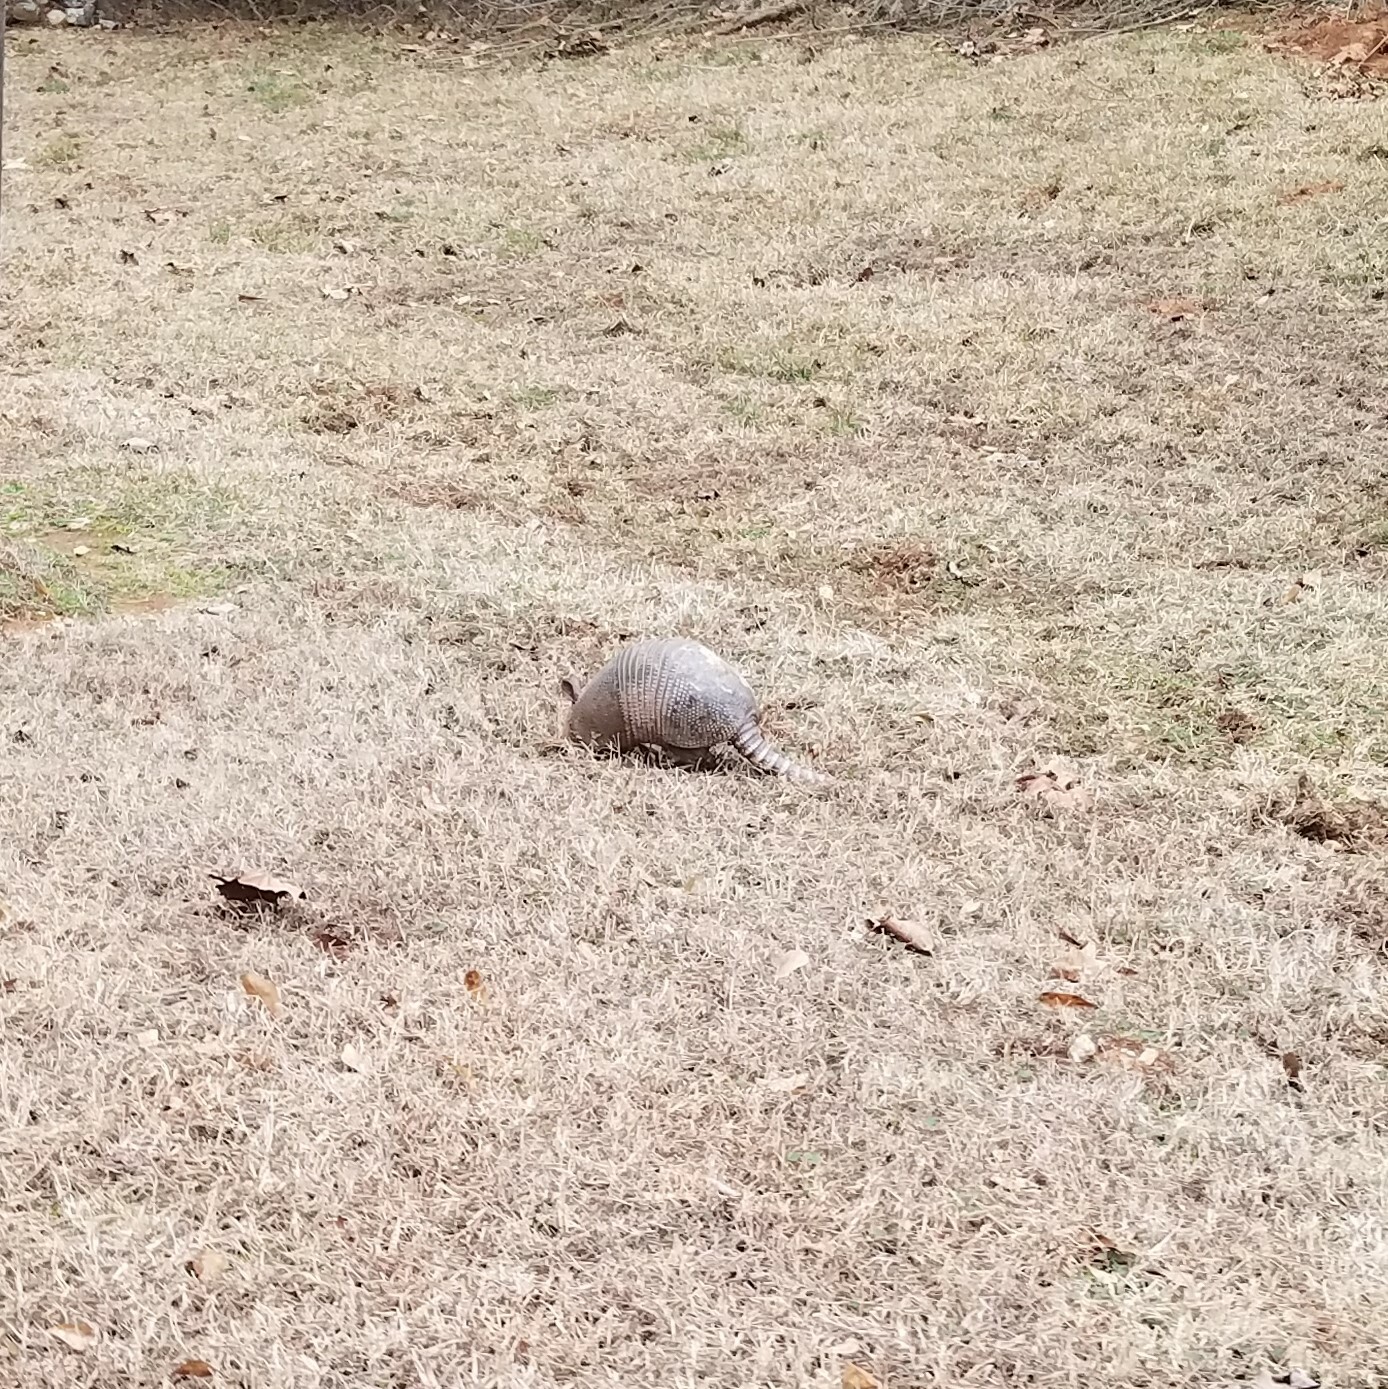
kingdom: Animalia
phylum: Chordata
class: Mammalia
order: Cingulata
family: Dasypodidae
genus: Dasypus
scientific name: Dasypus novemcinctus
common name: Nine-banded armadillo
